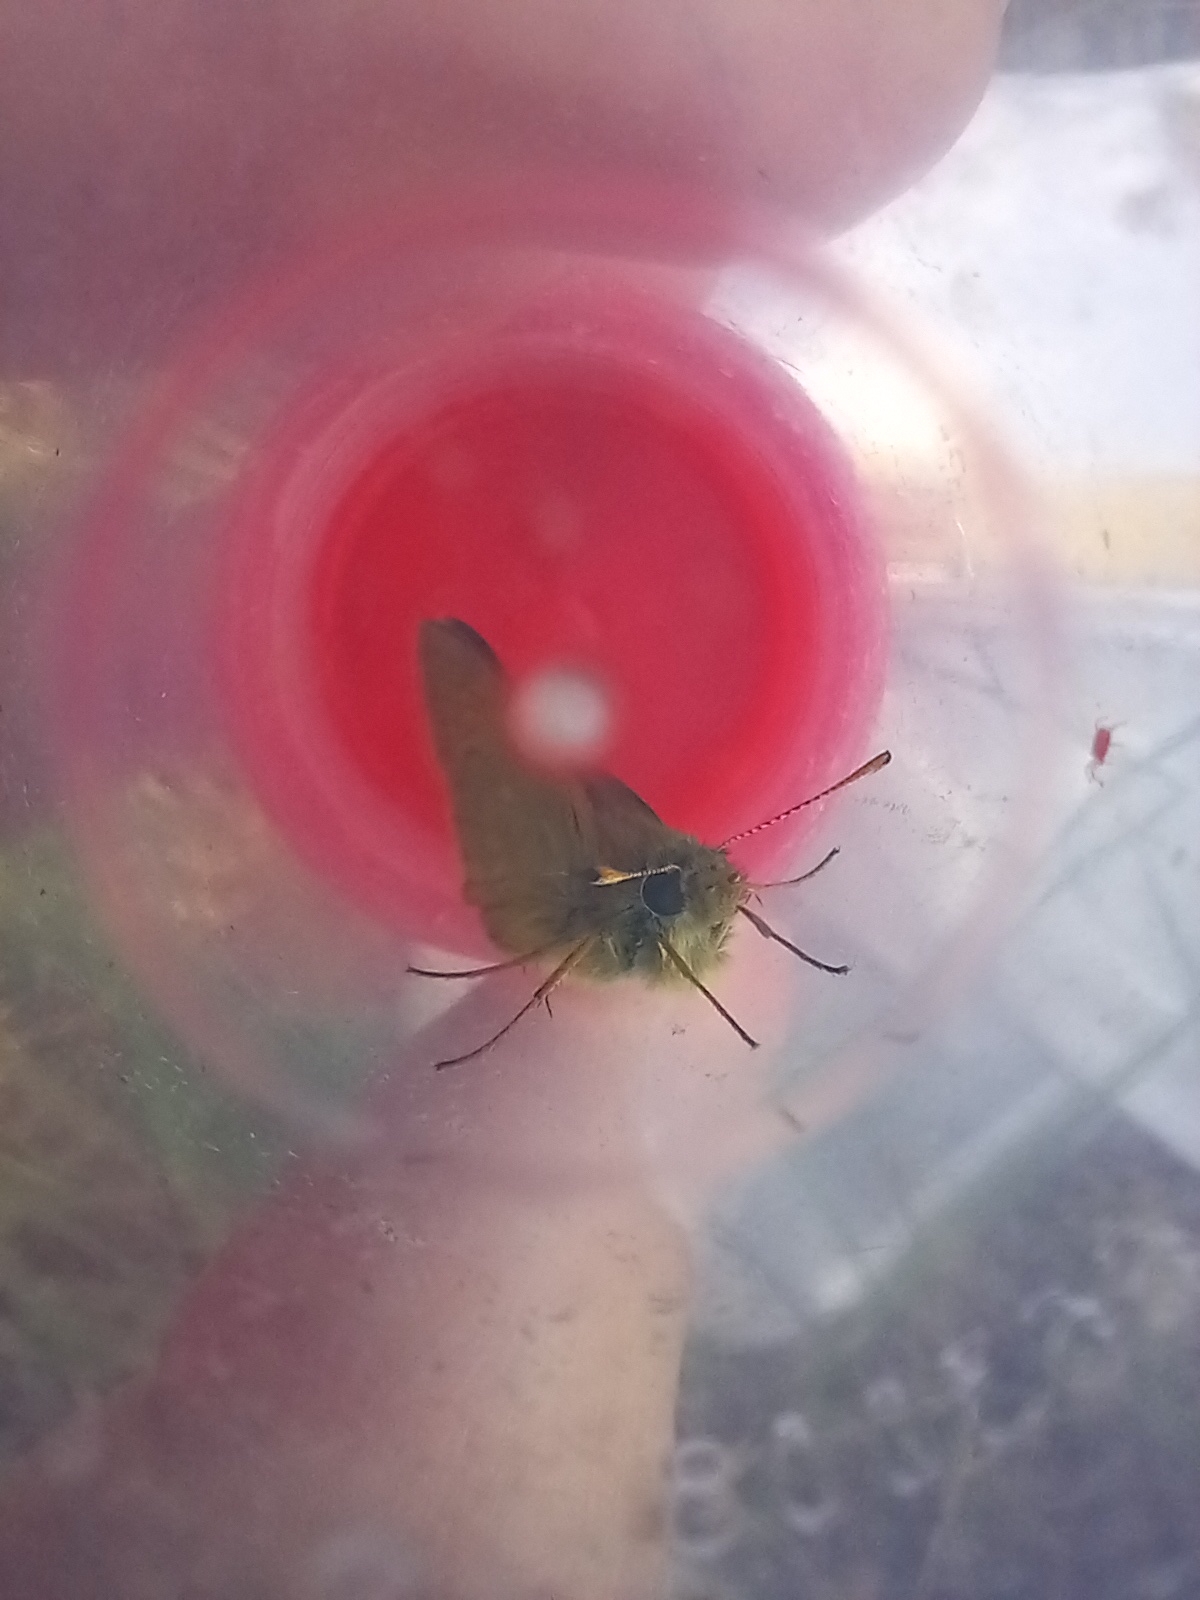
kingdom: Animalia
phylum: Arthropoda
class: Insecta
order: Lepidoptera
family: Hesperiidae
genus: Ochlodes
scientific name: Ochlodes venata
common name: Large skipper
